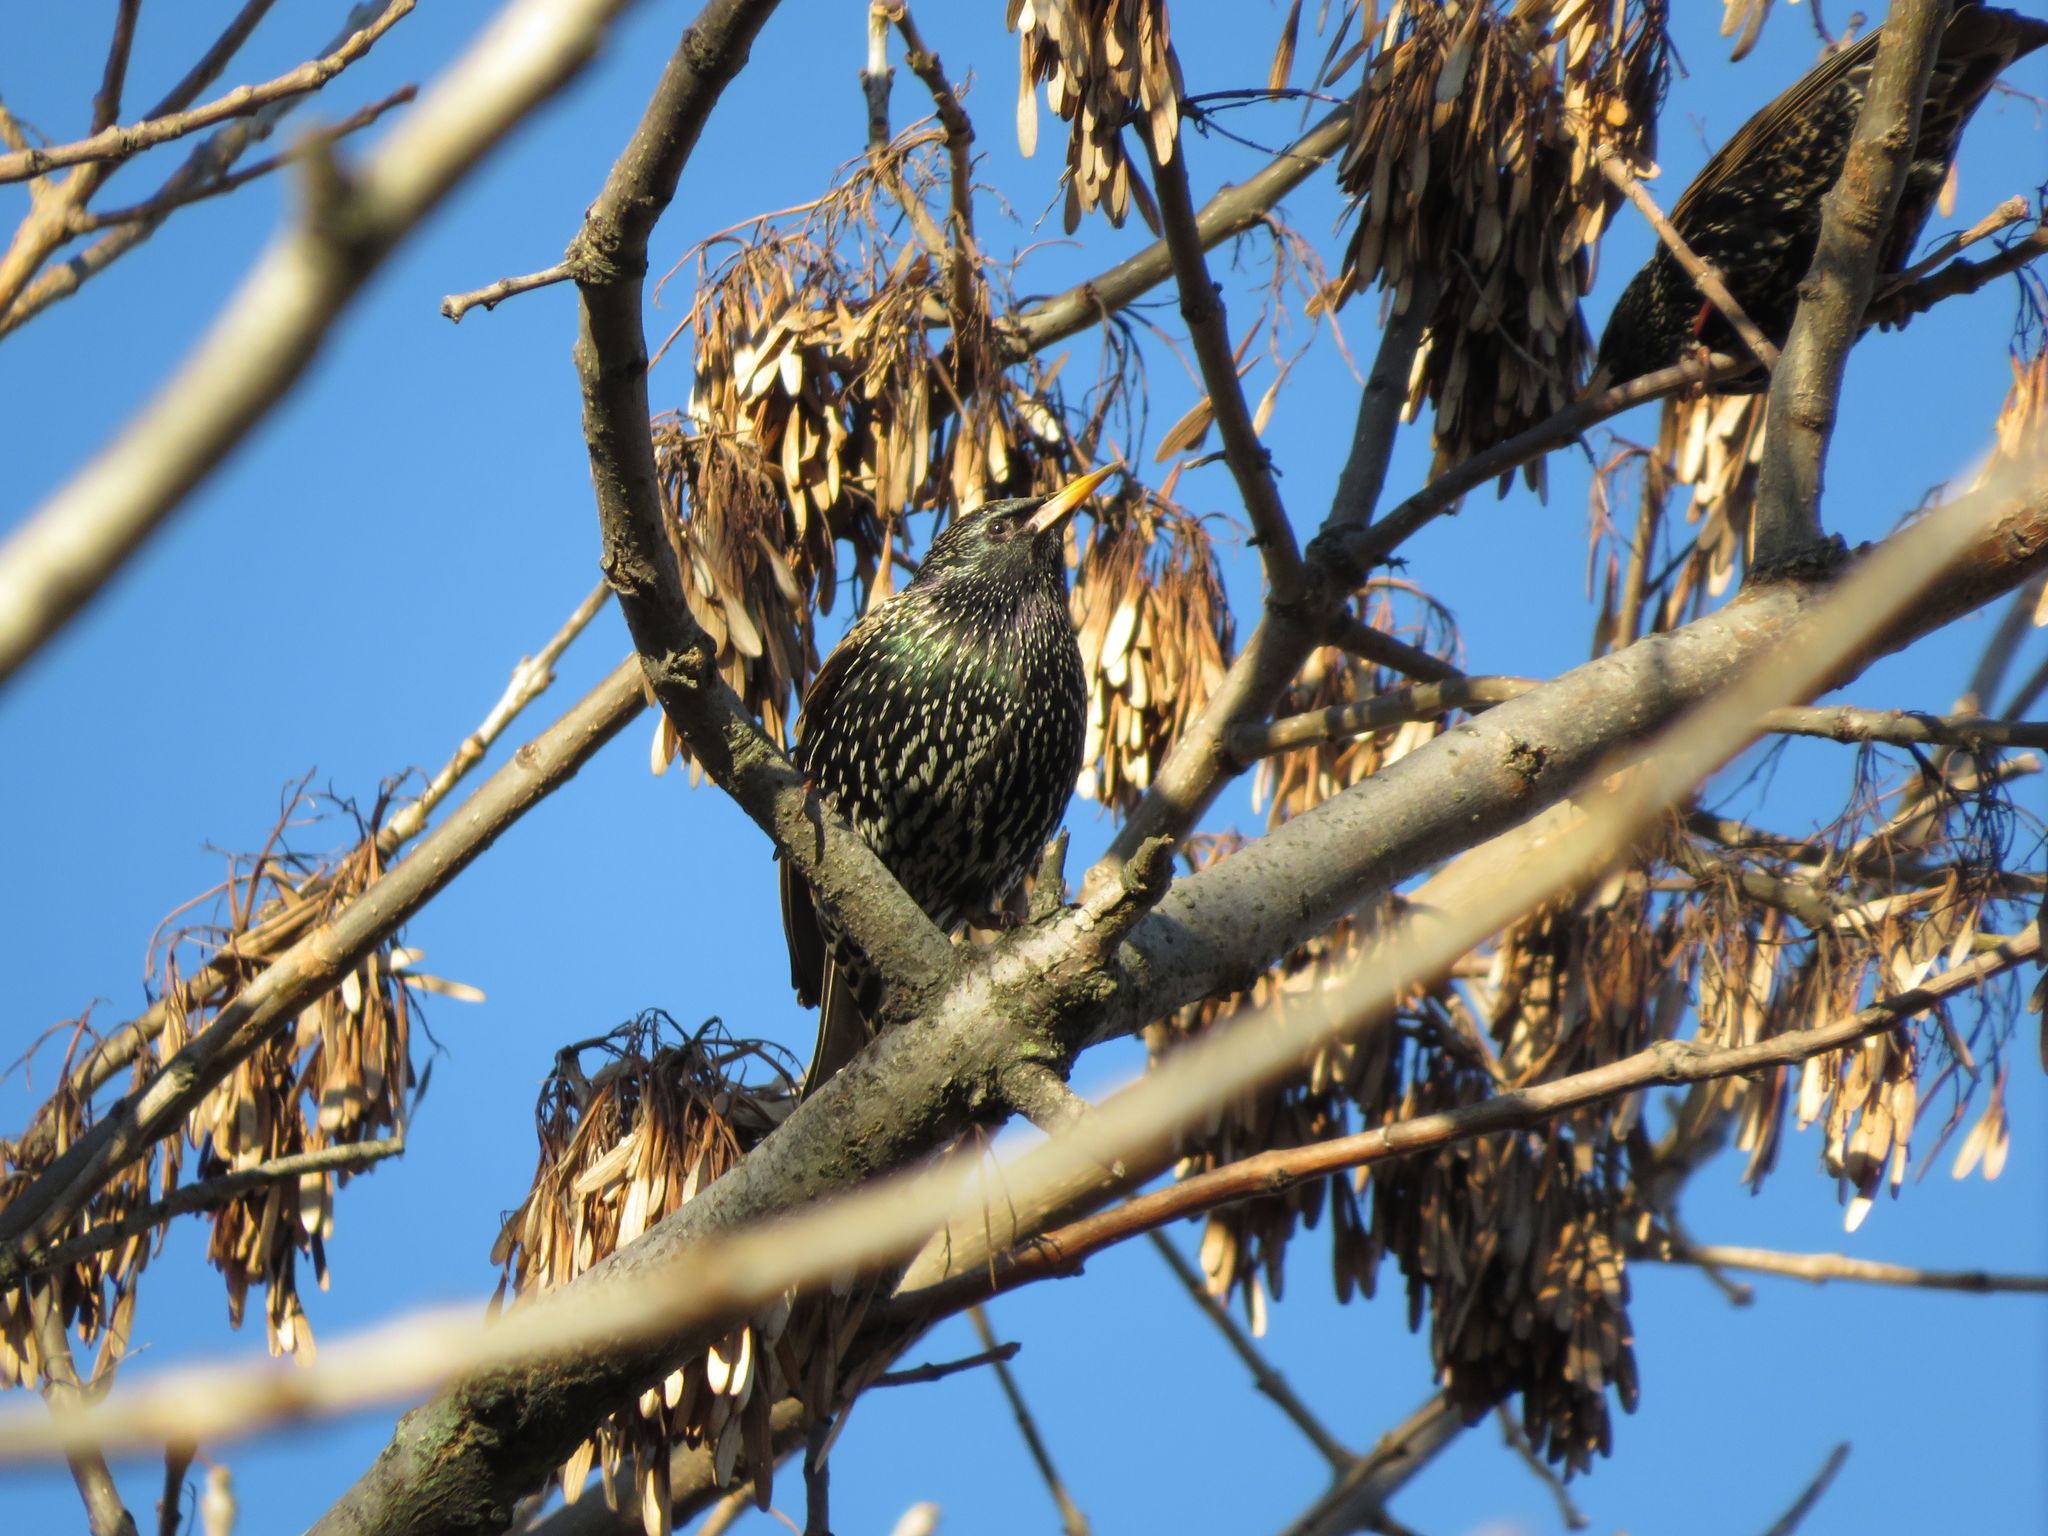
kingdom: Animalia
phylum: Chordata
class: Aves
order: Passeriformes
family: Sturnidae
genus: Sturnus
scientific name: Sturnus vulgaris
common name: Common starling
